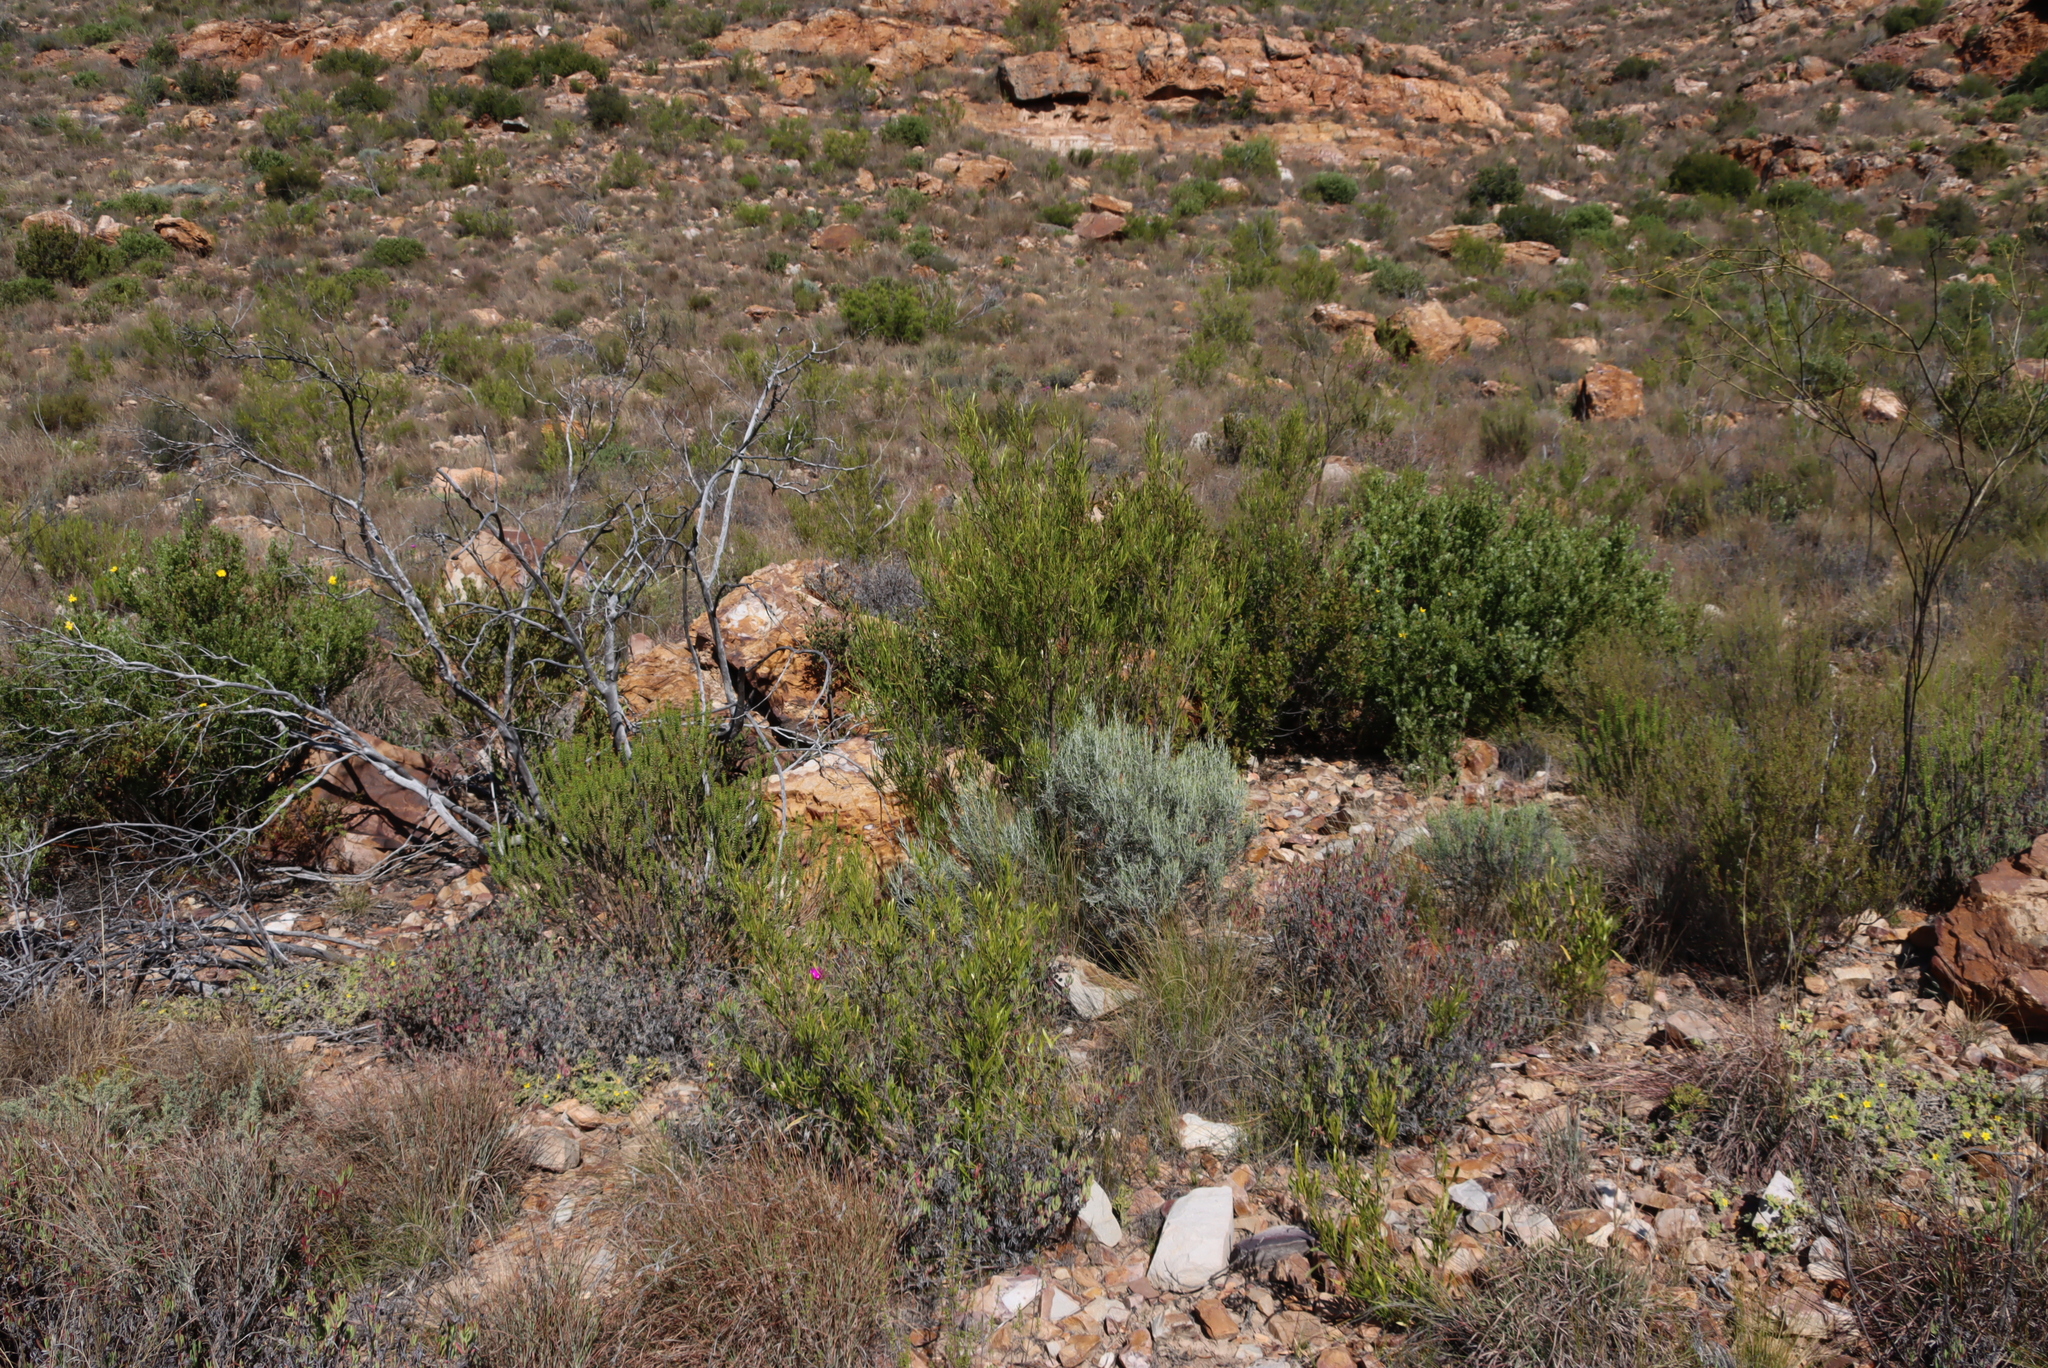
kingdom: Plantae
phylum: Tracheophyta
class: Magnoliopsida
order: Sapindales
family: Sapindaceae
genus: Dodonaea
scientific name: Dodonaea viscosa
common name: Hopbush
